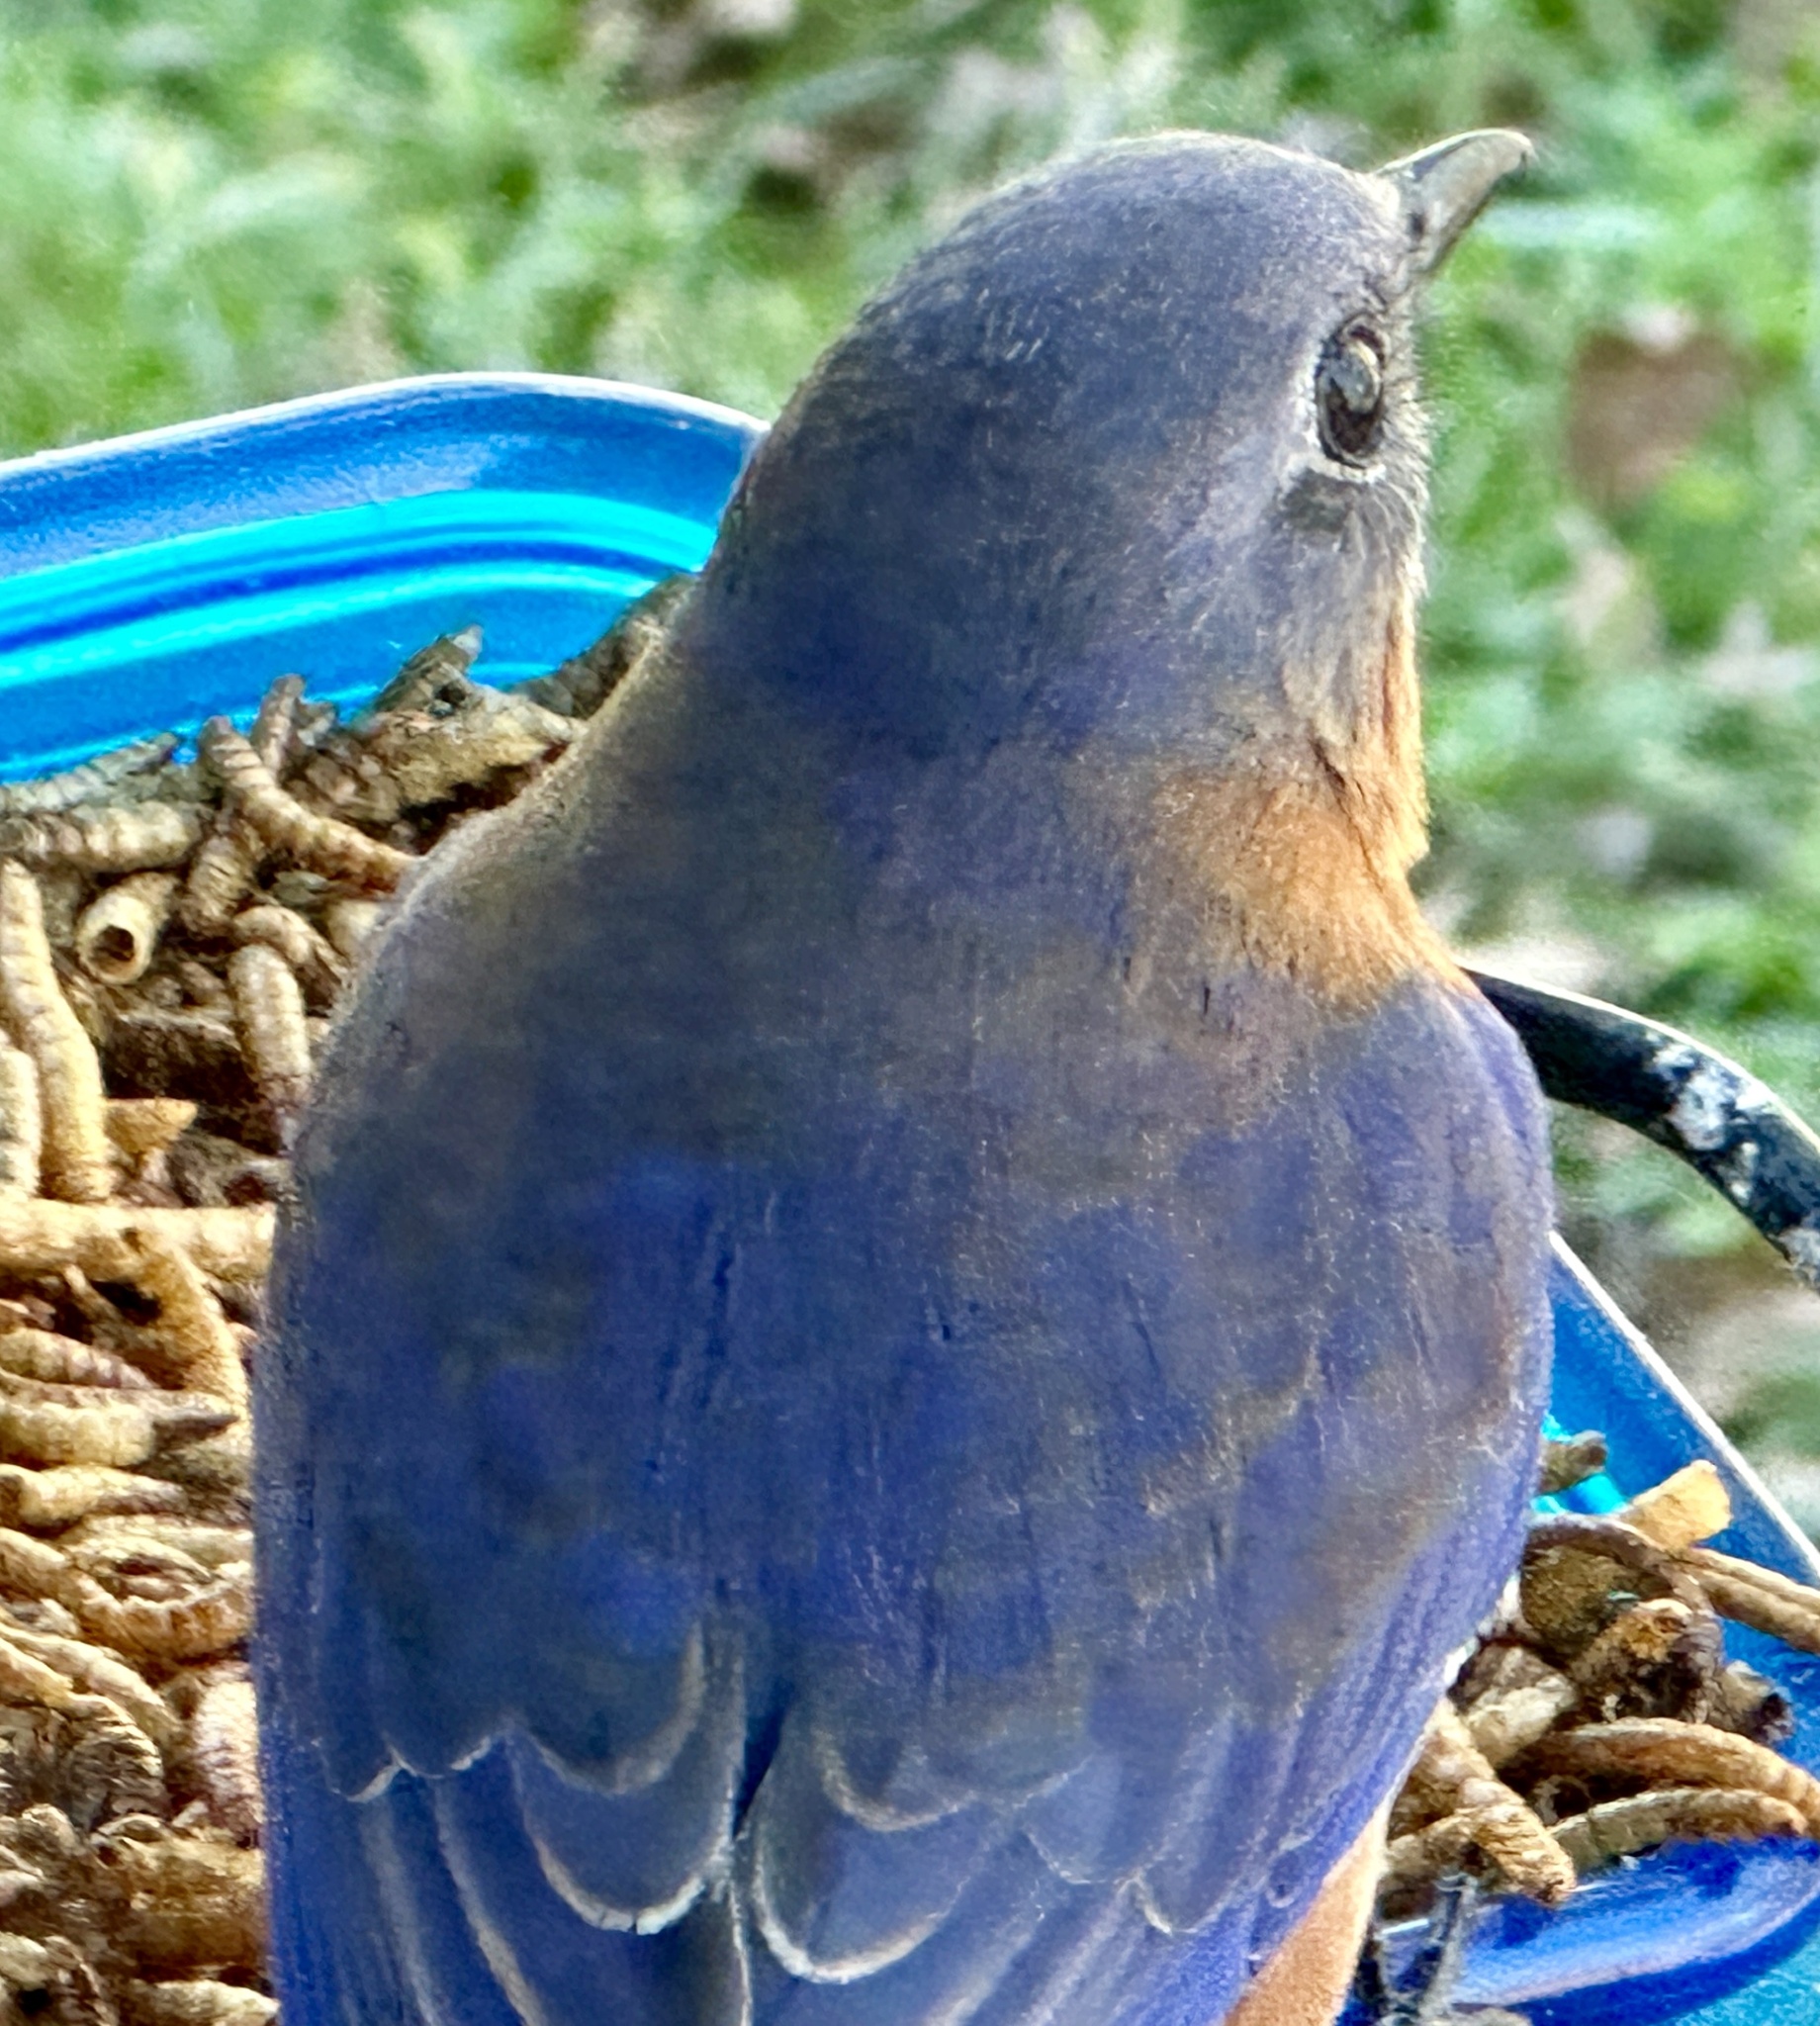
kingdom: Animalia
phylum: Chordata
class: Aves
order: Passeriformes
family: Turdidae
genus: Sialia
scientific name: Sialia sialis
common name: Eastern bluebird
